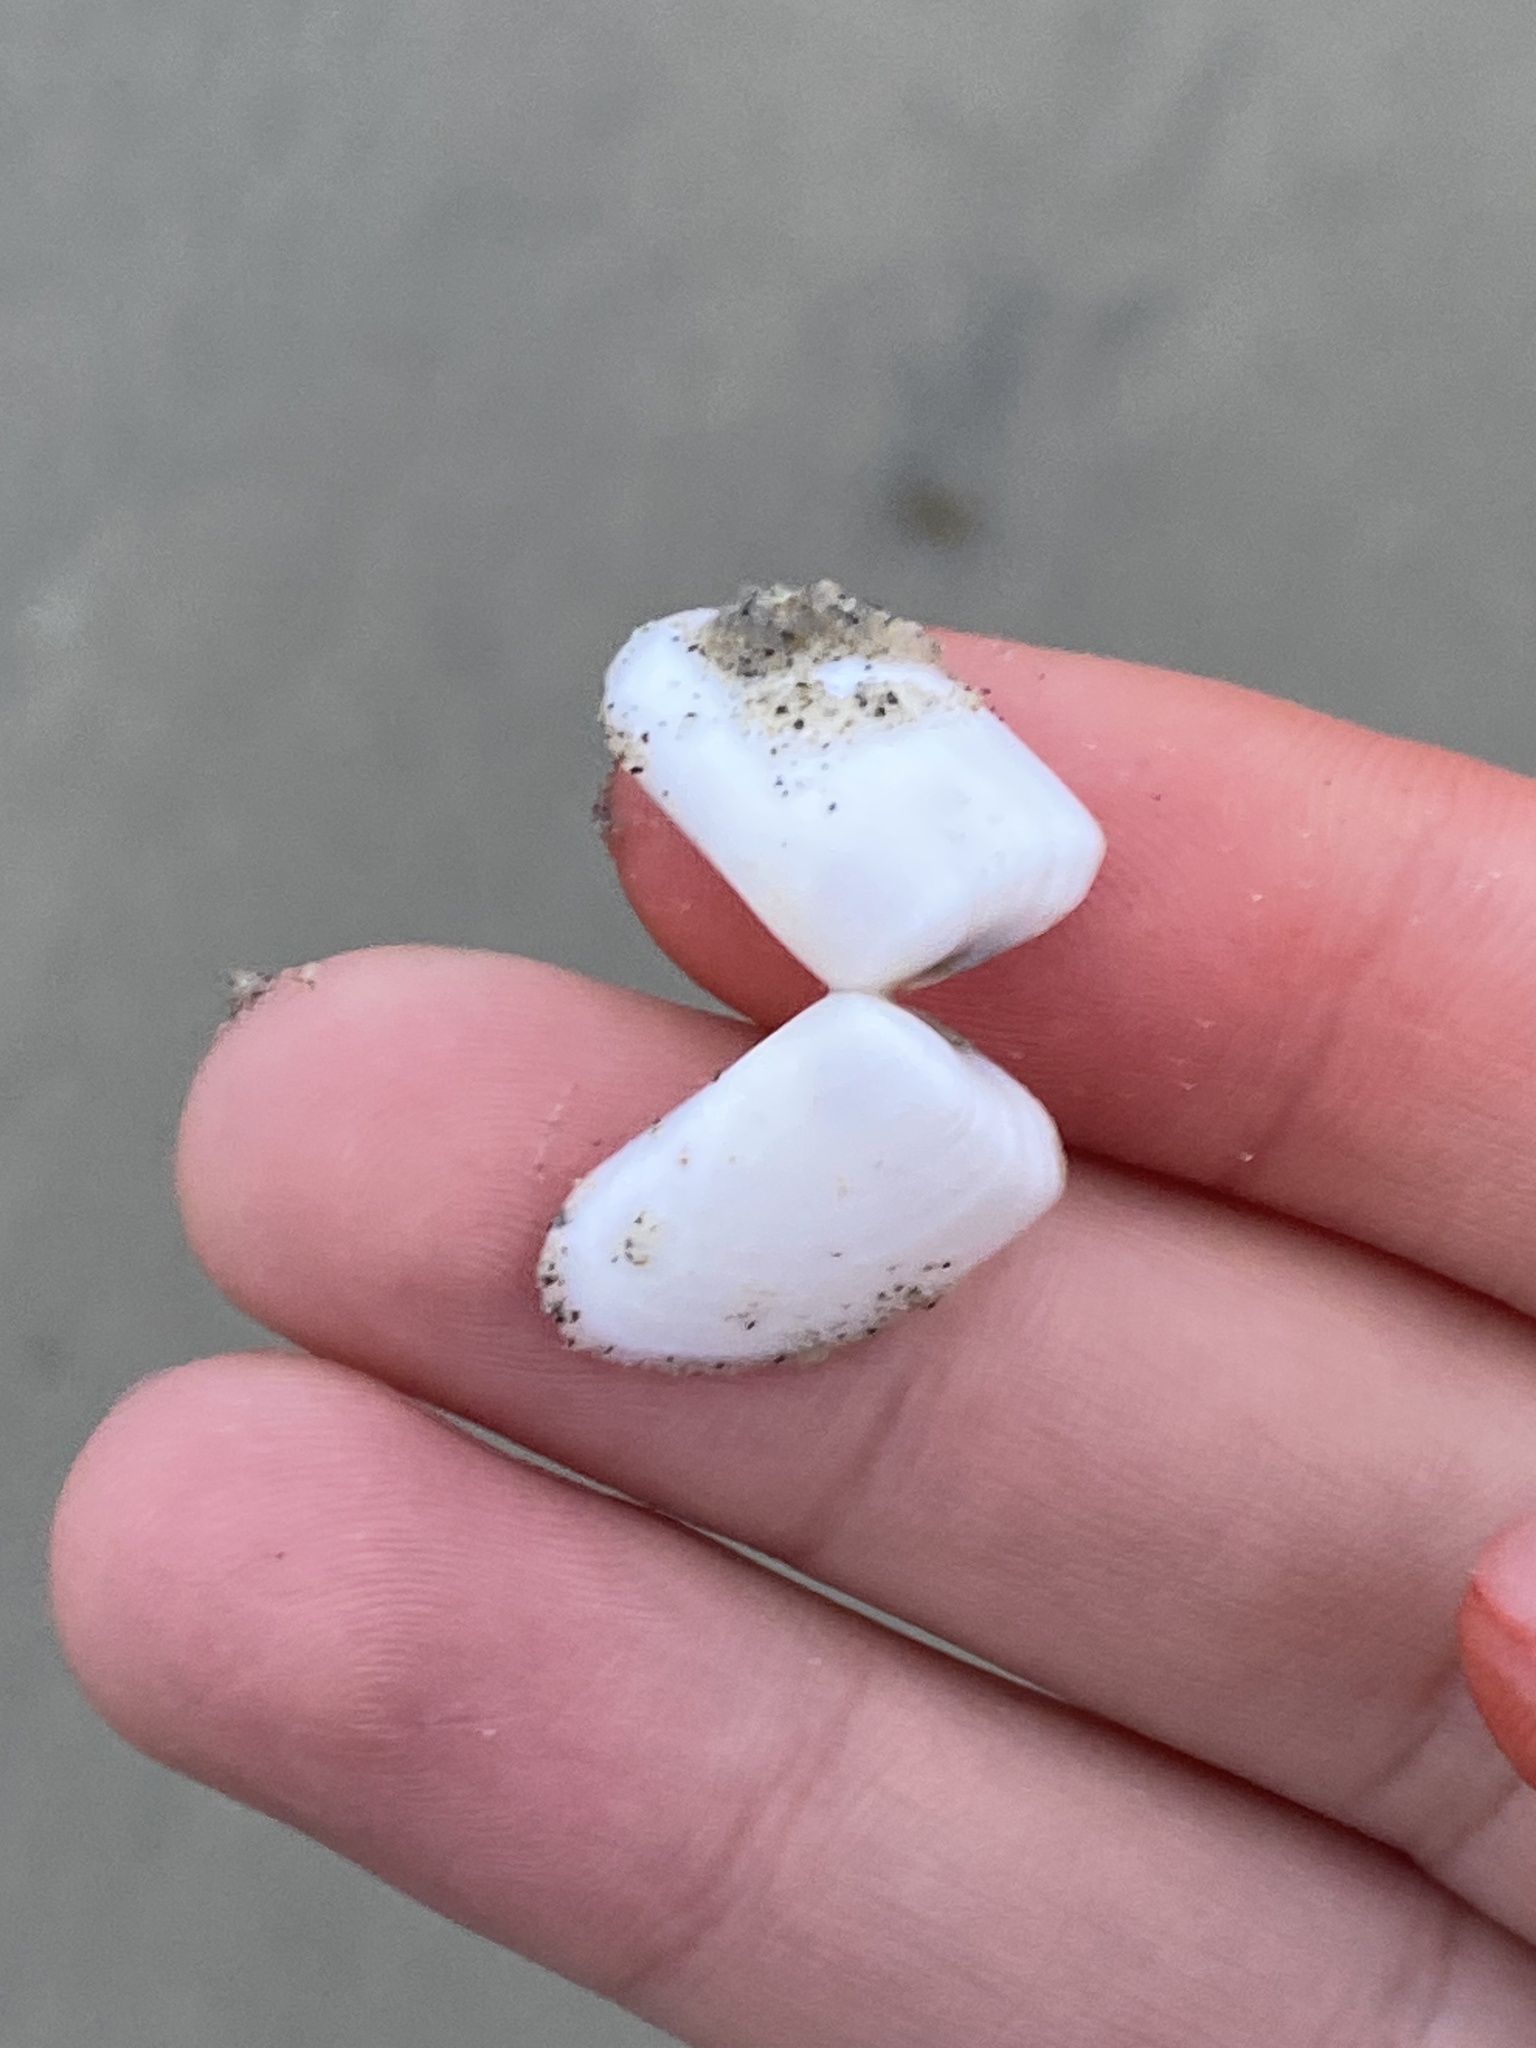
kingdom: Animalia
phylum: Mollusca
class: Bivalvia
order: Cardiida
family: Donacidae
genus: Donax
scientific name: Donax gouldii
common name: Gould beanclam
